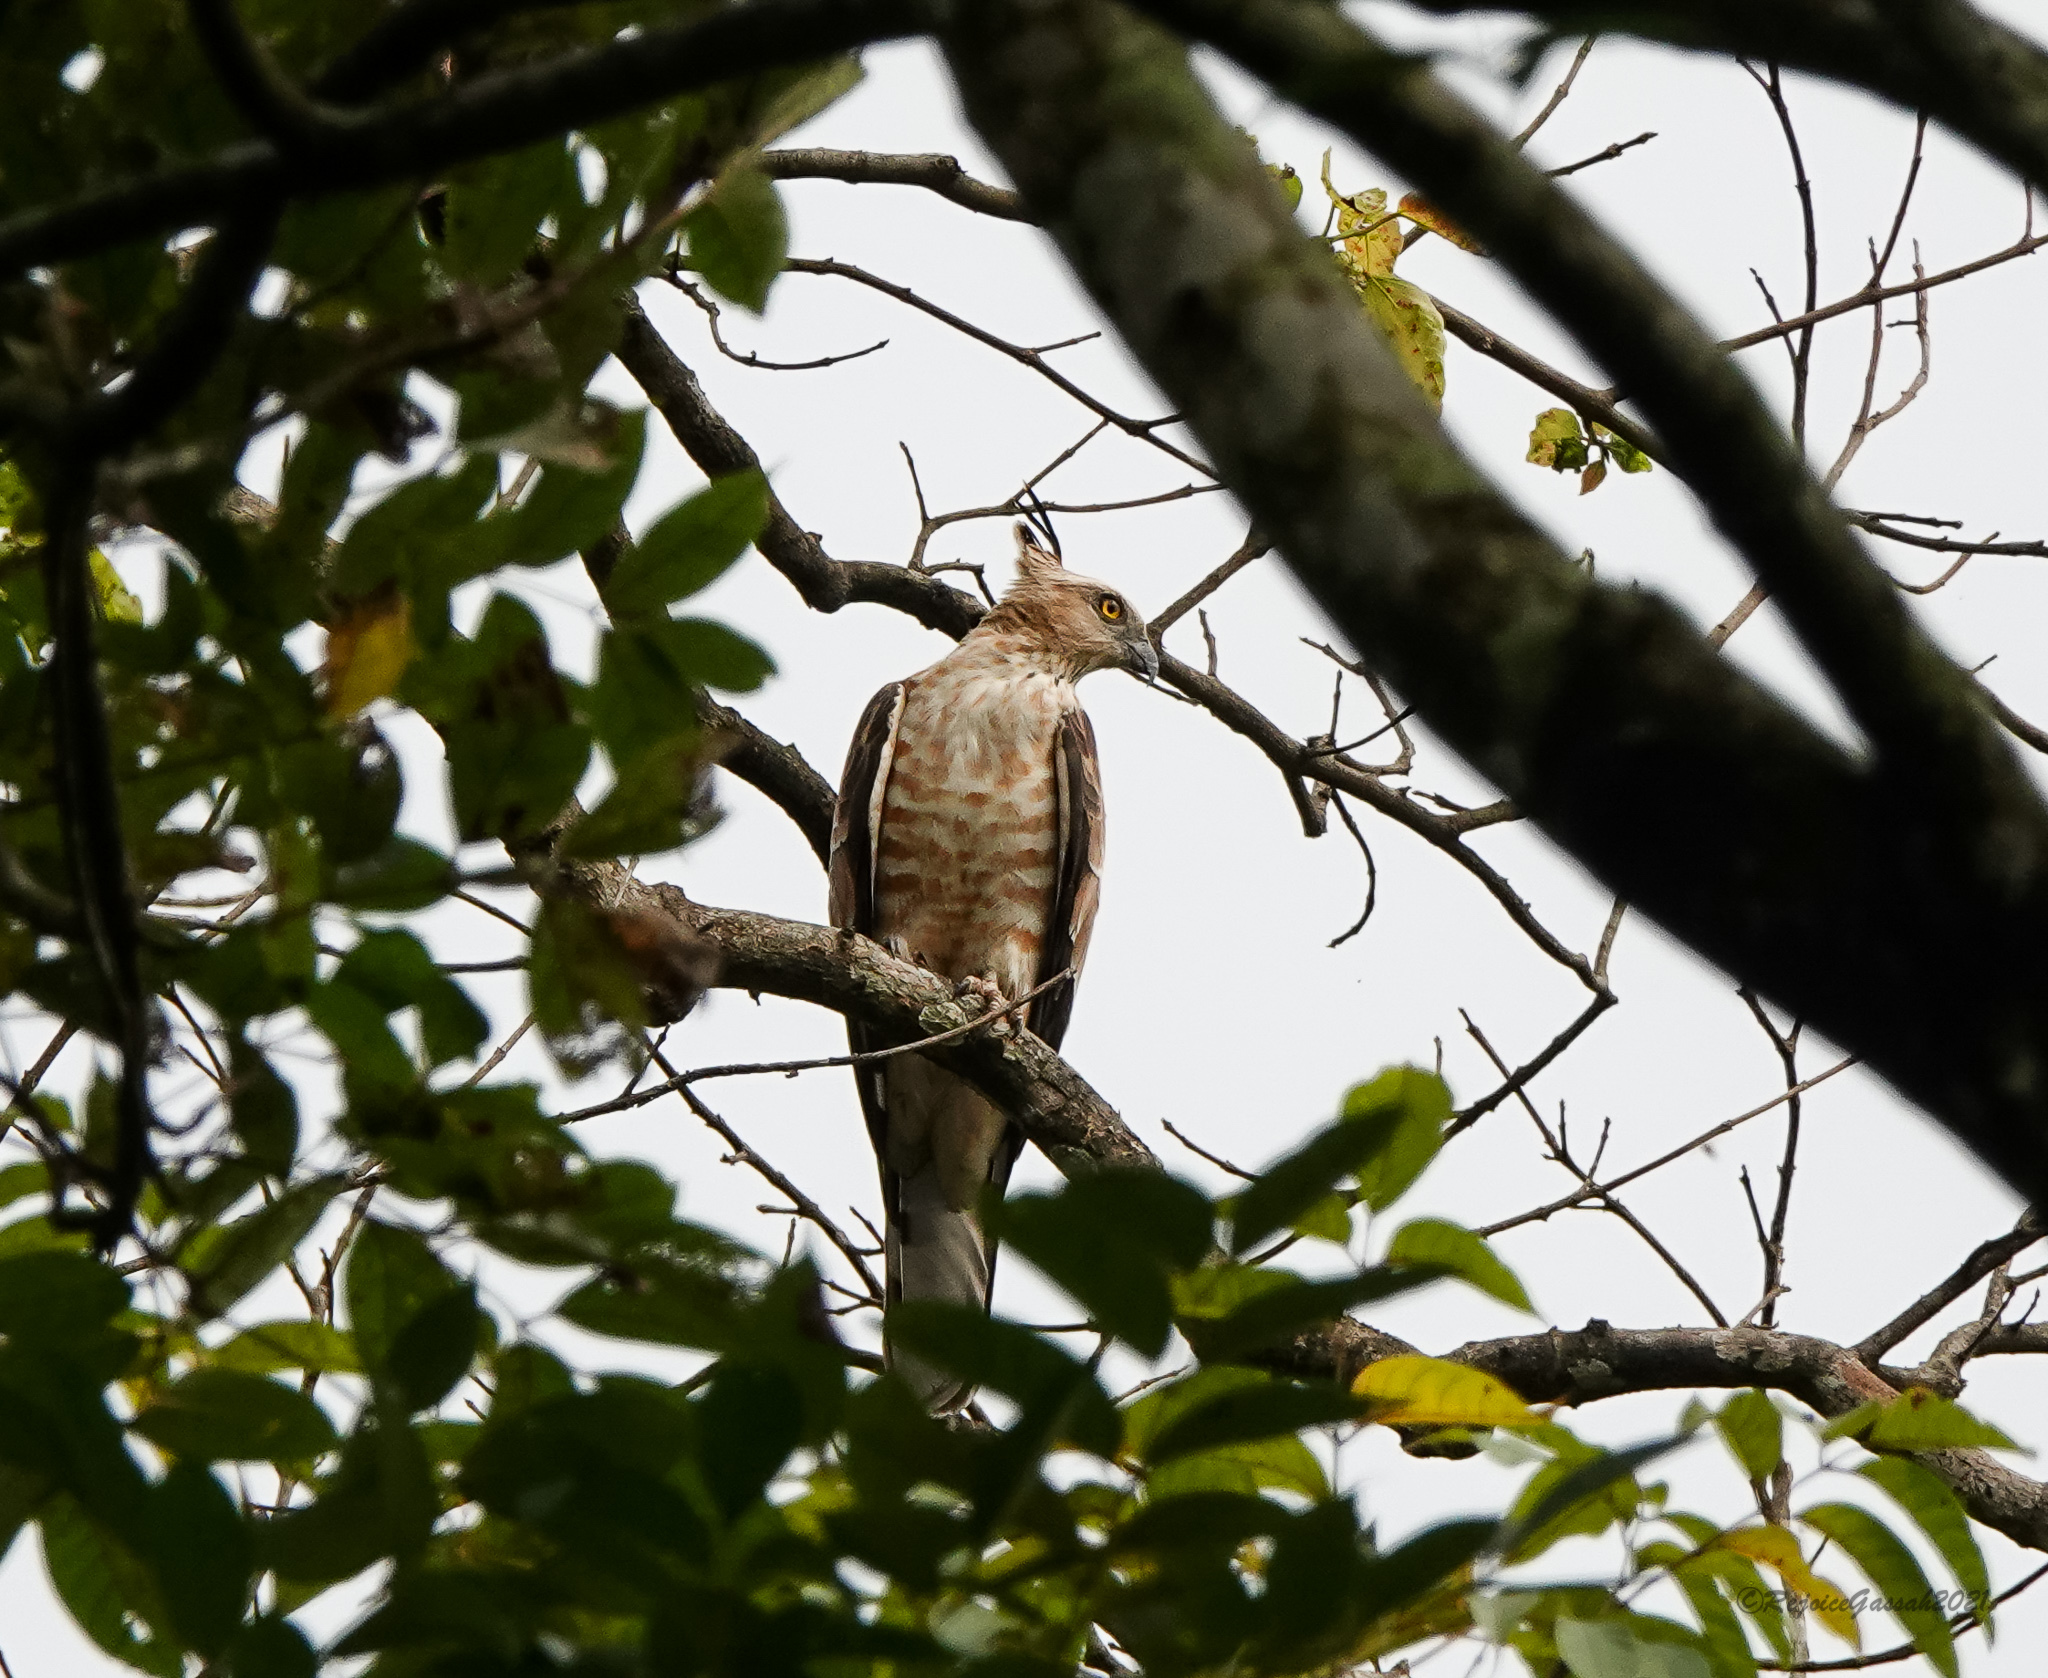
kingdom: Animalia
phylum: Chordata
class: Aves
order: Accipitriformes
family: Accipitridae
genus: Aviceda
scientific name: Aviceda jerdoni
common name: Jerdon's baza
